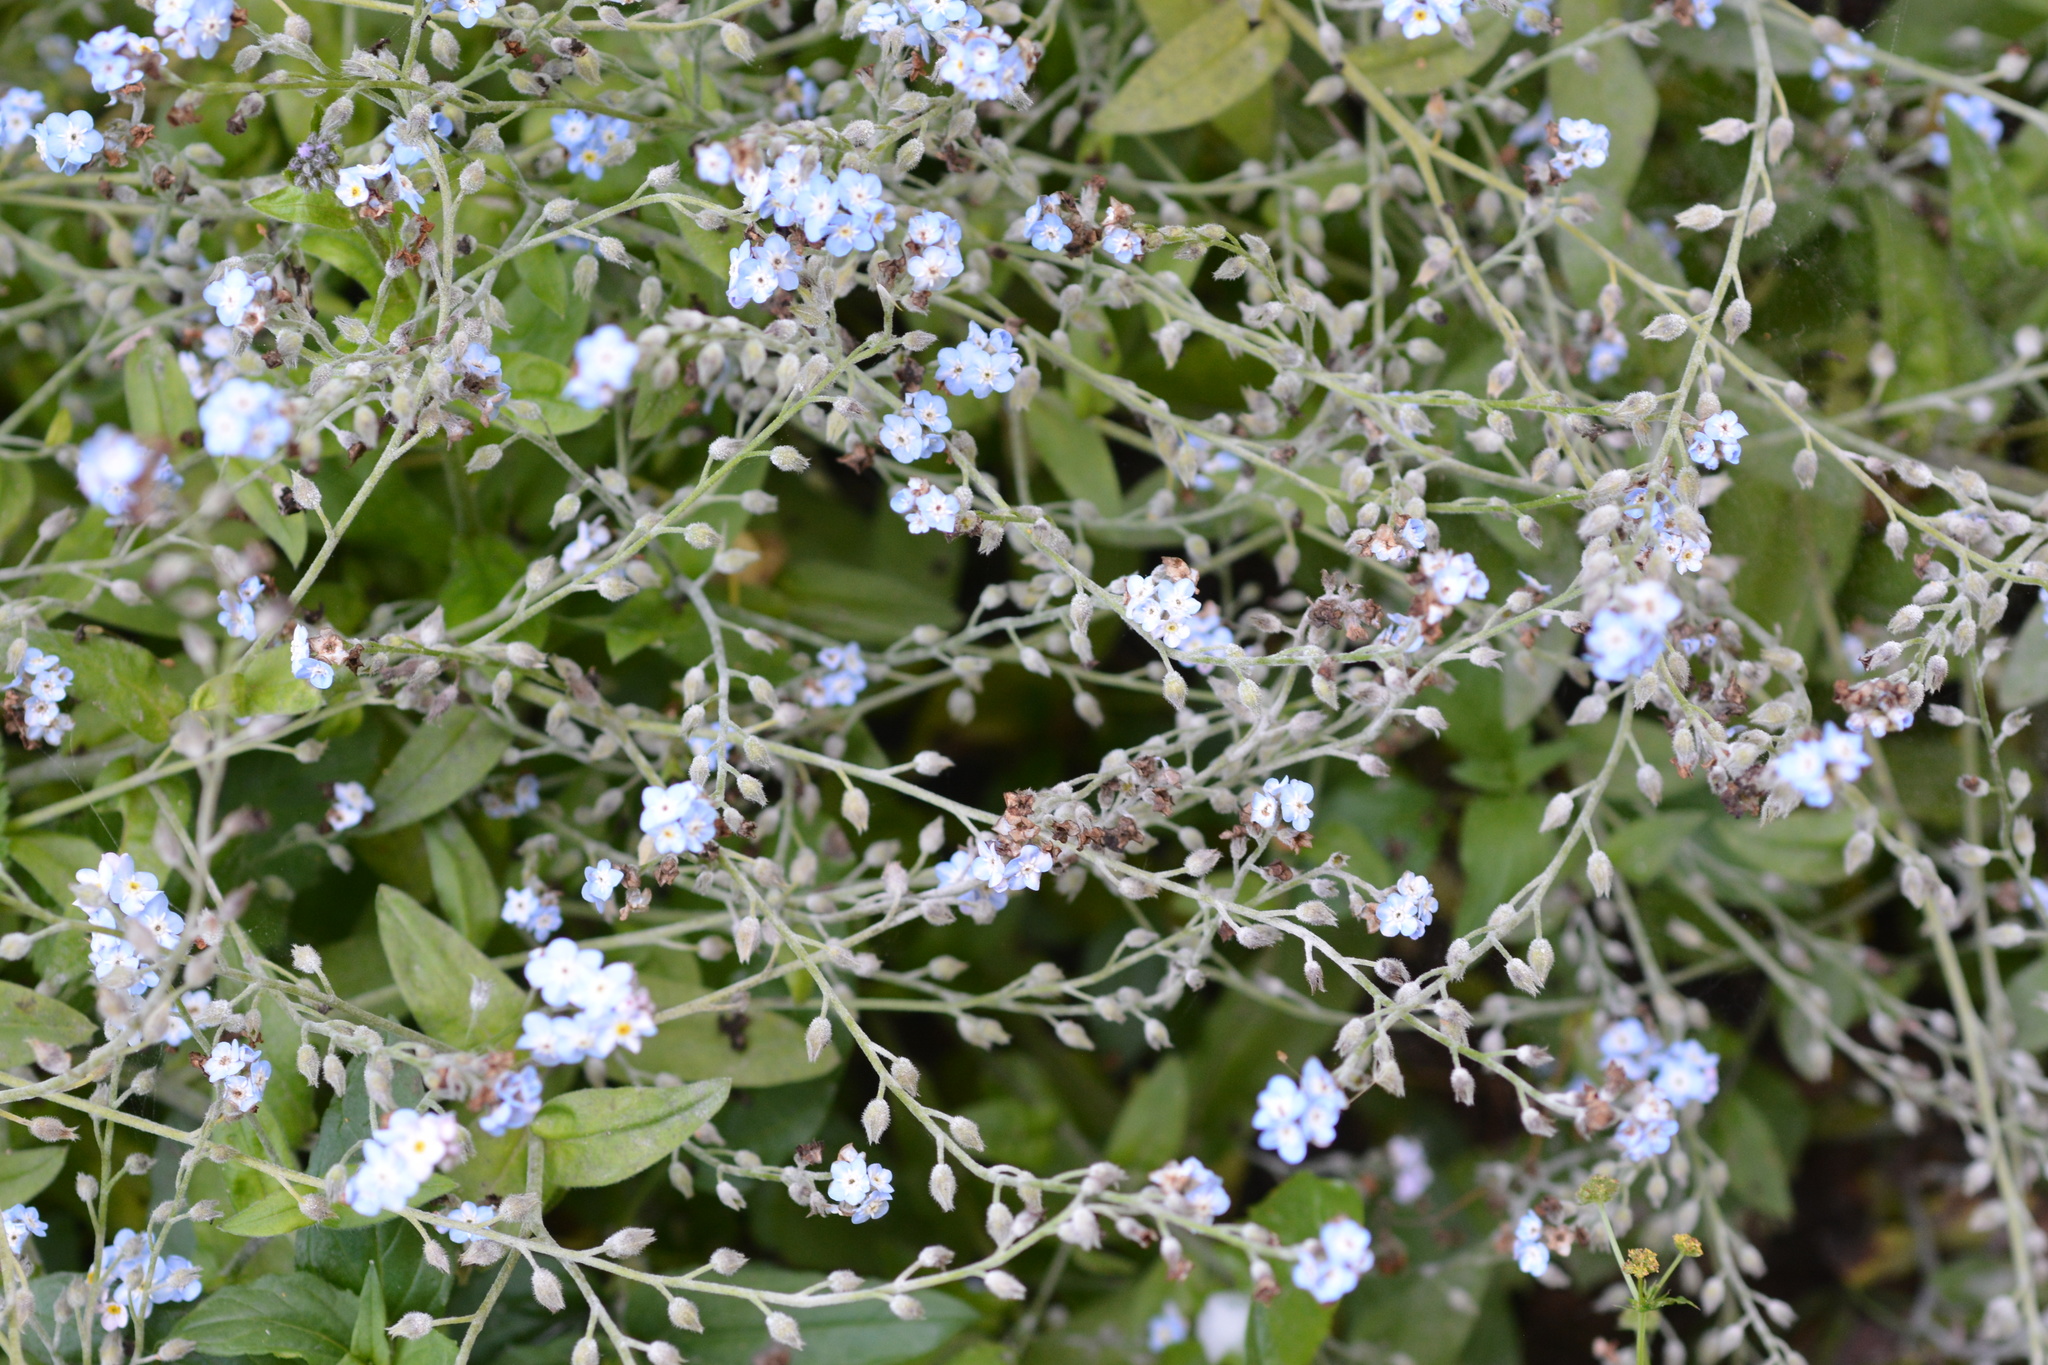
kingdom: Plantae
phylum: Tracheophyta
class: Magnoliopsida
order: Boraginales
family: Boraginaceae
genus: Myosotis
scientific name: Myosotis latifolia
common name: Broadleaf forget-me-not
